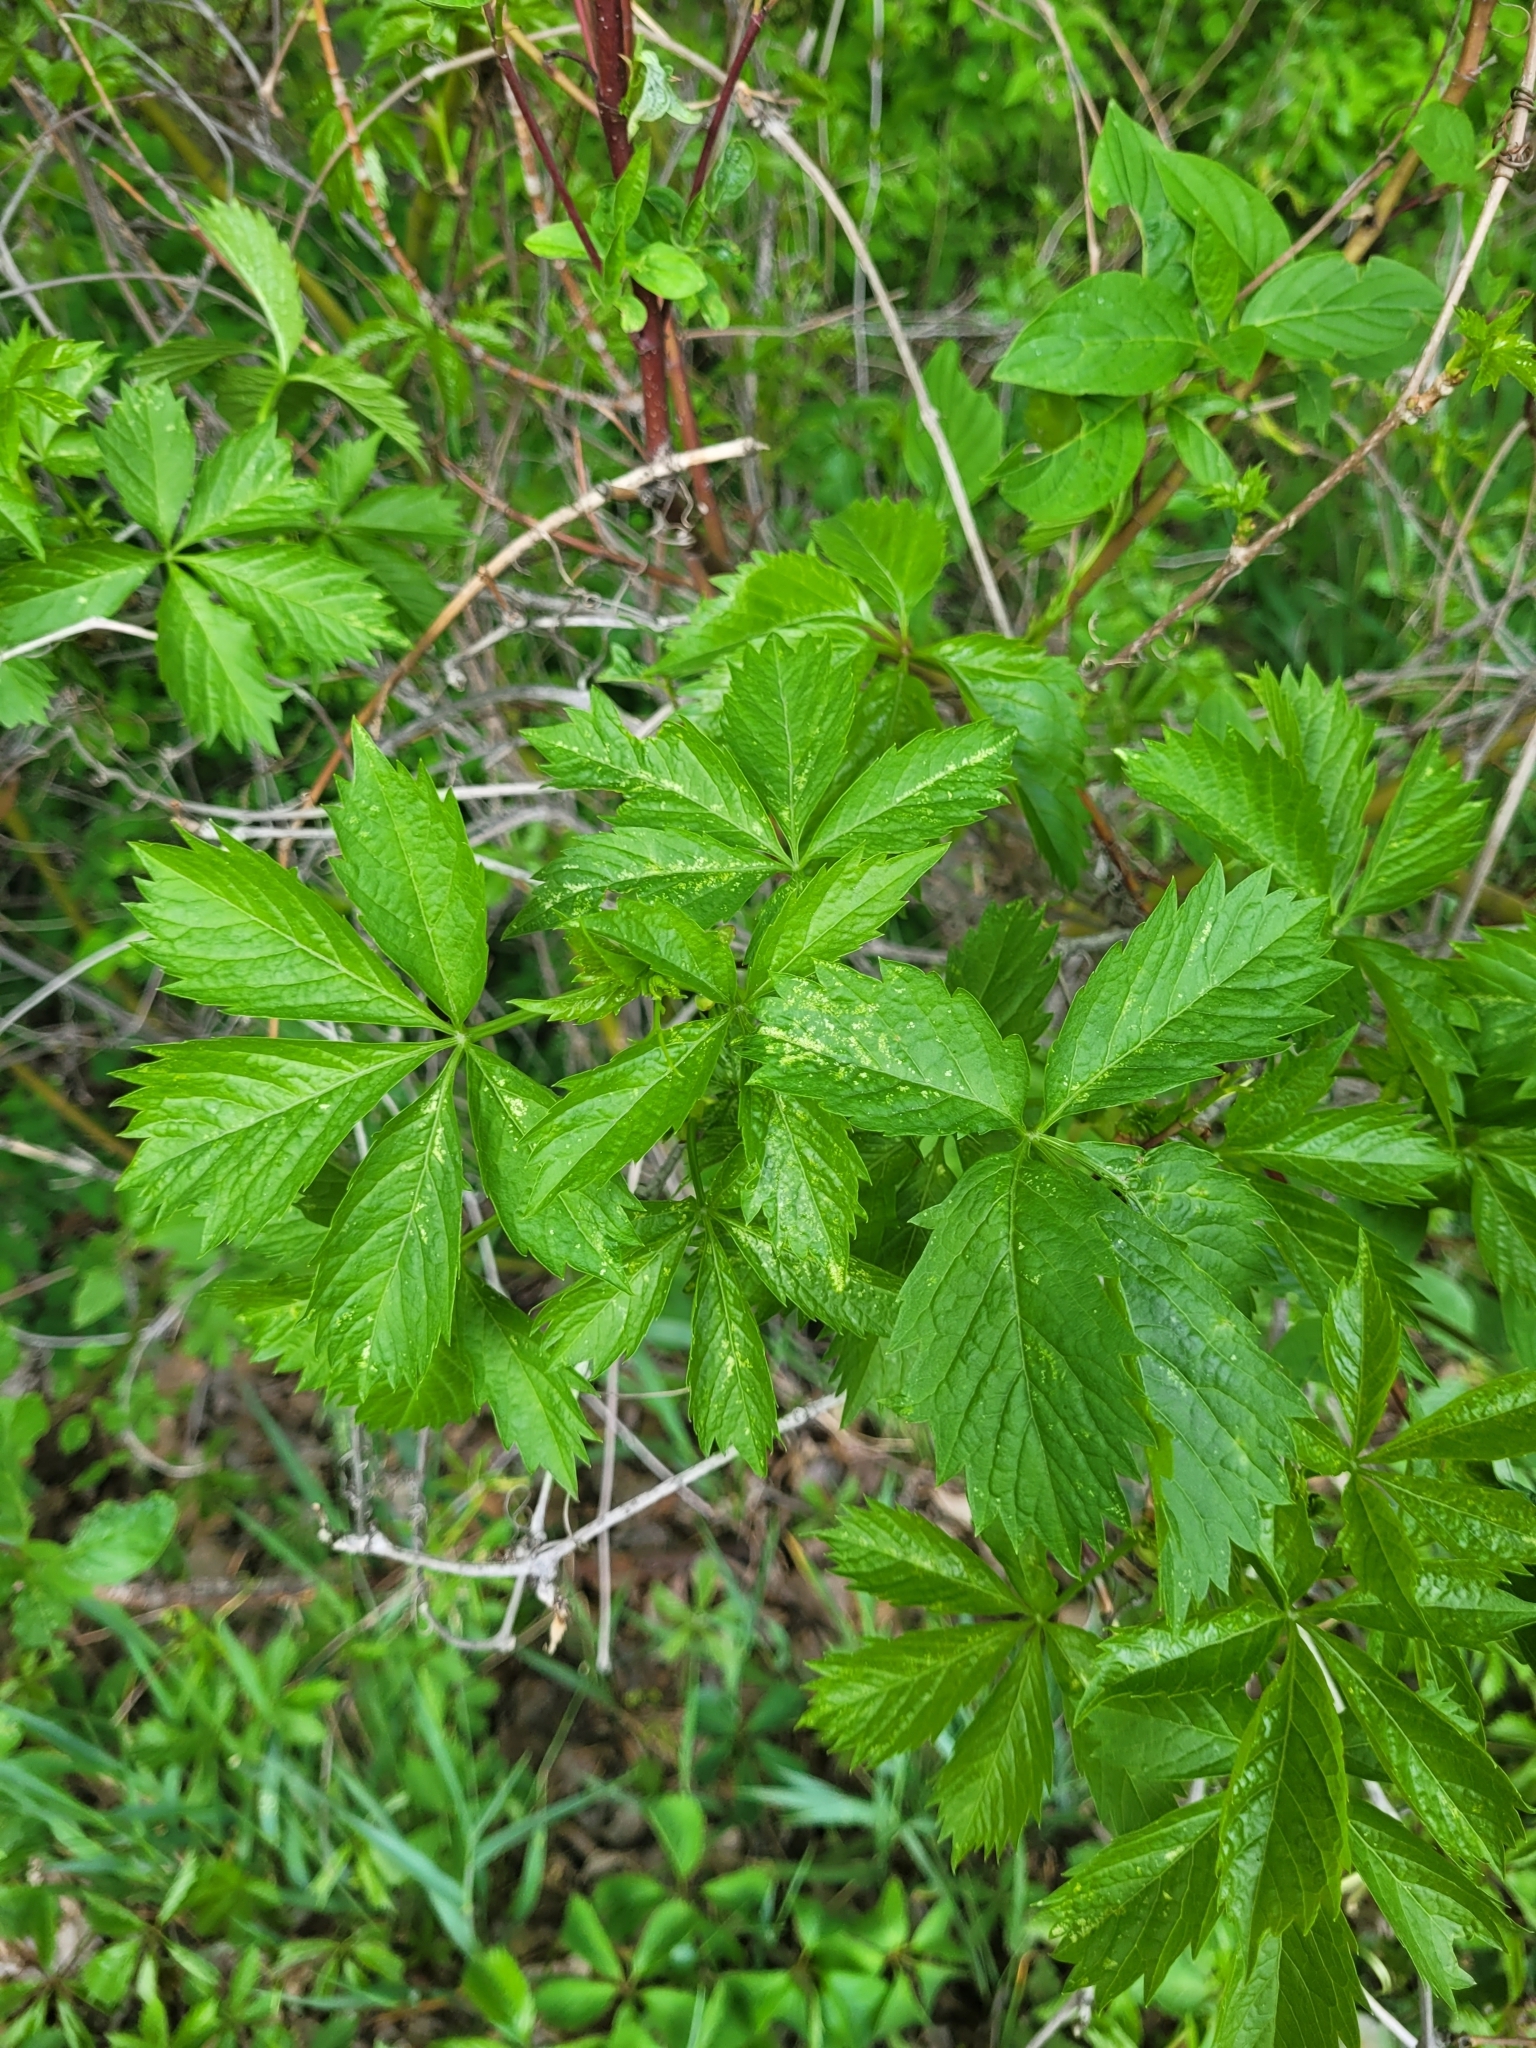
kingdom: Plantae
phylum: Tracheophyta
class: Magnoliopsida
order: Vitales
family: Vitaceae
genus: Parthenocissus
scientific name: Parthenocissus quinquefolia
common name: Virginia-creeper
